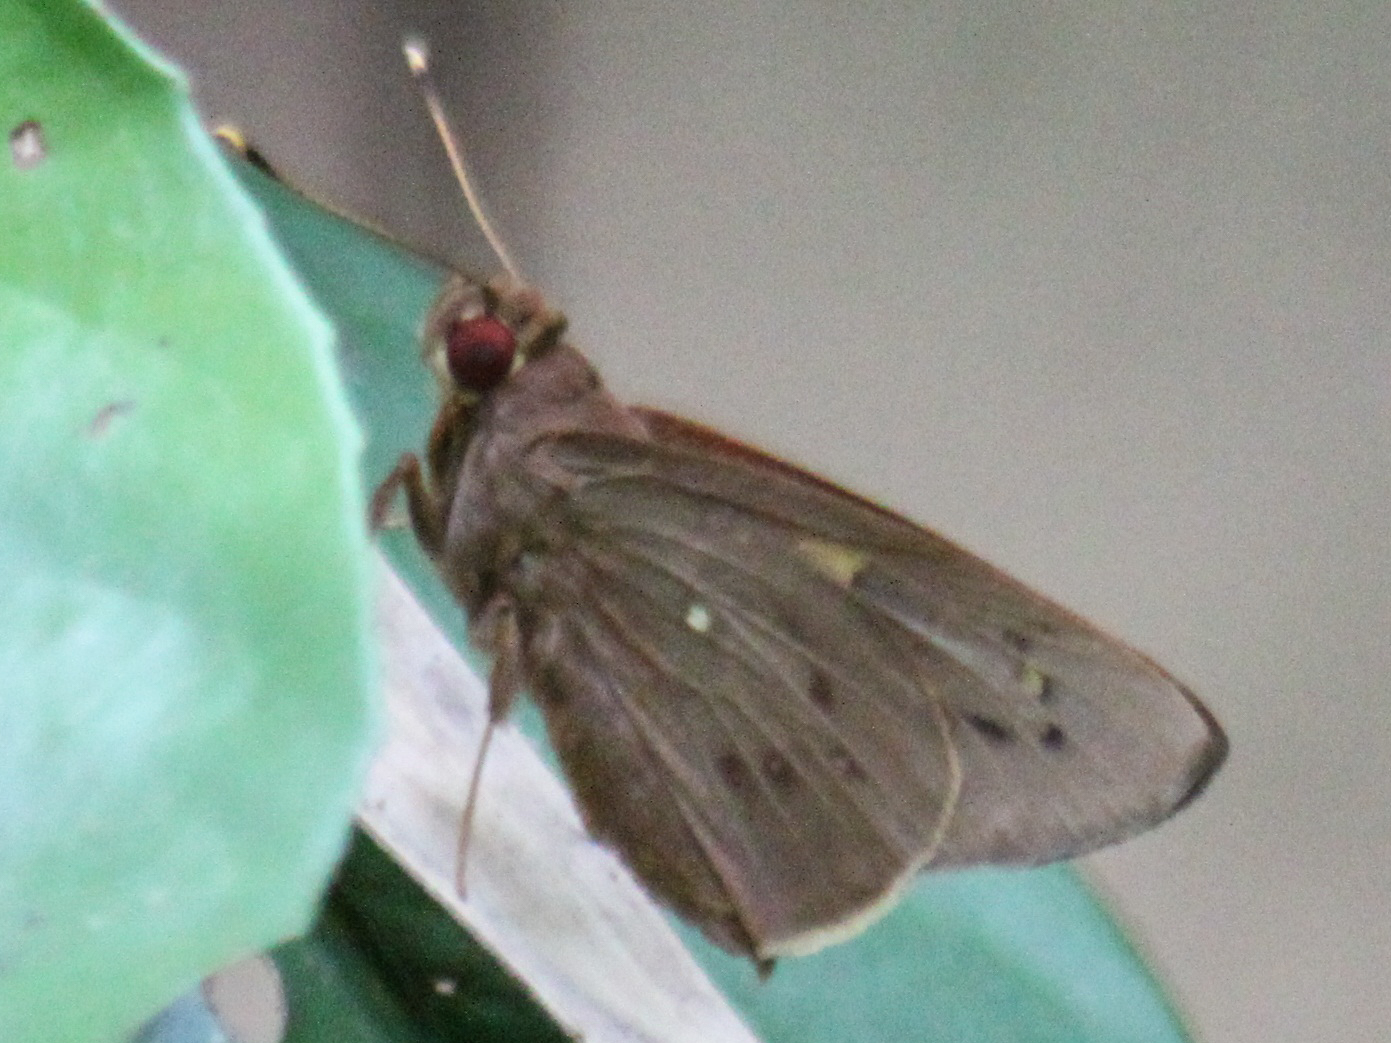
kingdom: Animalia
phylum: Arthropoda
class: Insecta
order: Lepidoptera
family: Hesperiidae
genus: Hidari
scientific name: Hidari irava
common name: Coconut skipper
